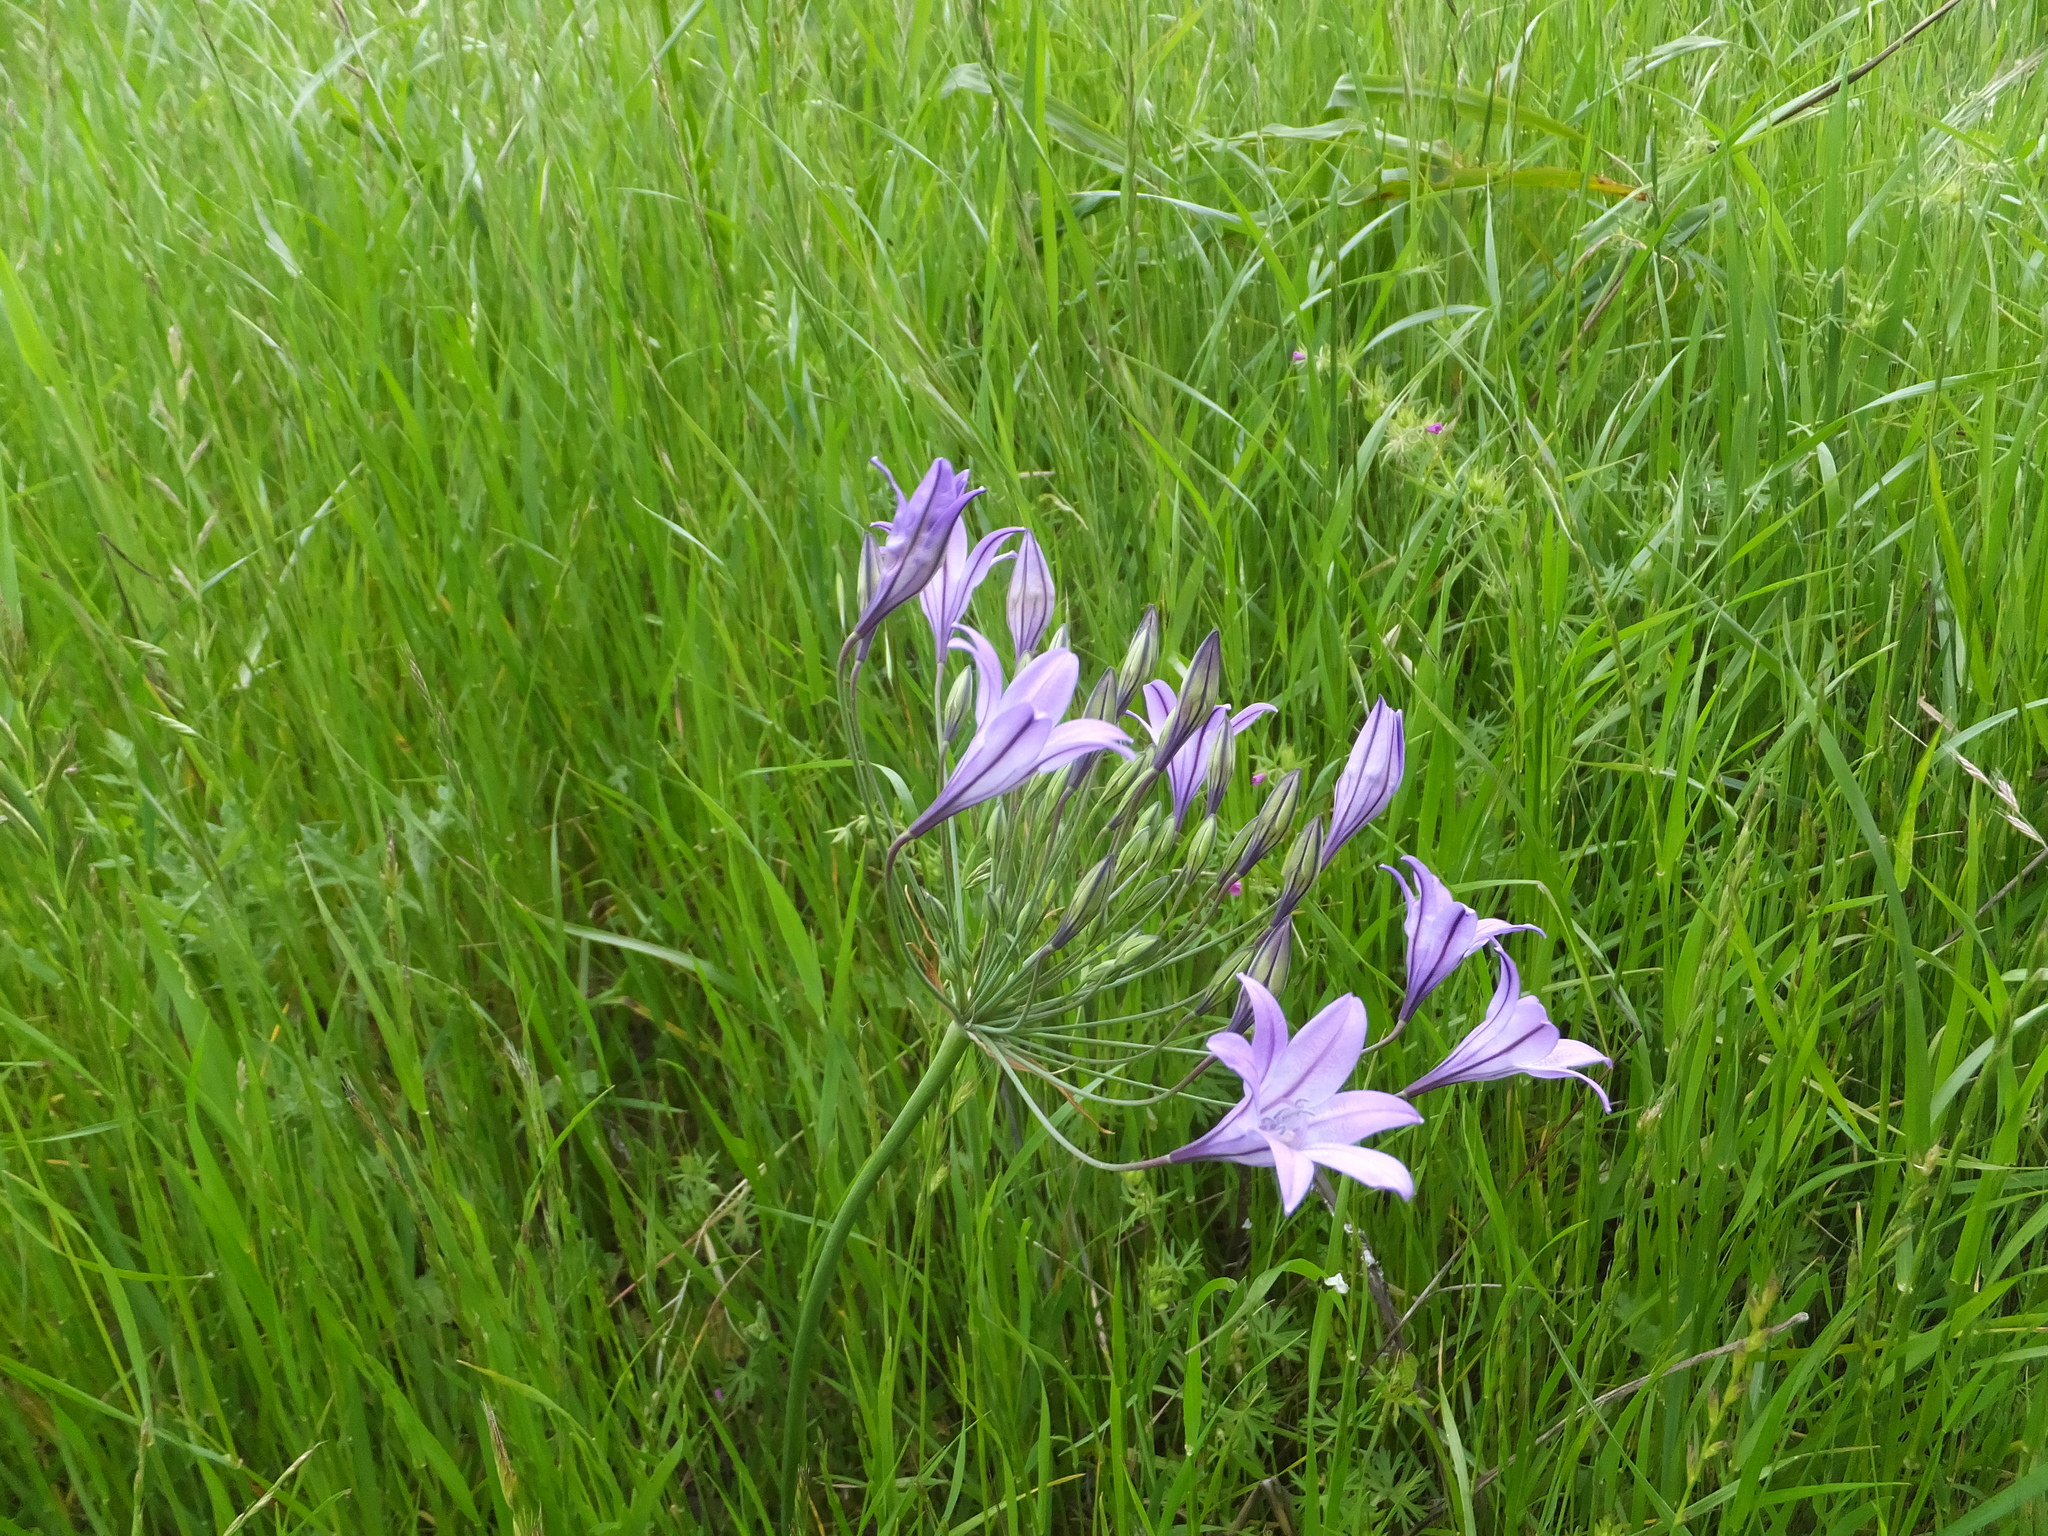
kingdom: Plantae
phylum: Tracheophyta
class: Liliopsida
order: Asparagales
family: Asparagaceae
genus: Triteleia
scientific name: Triteleia laxa
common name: Triplet-lily
